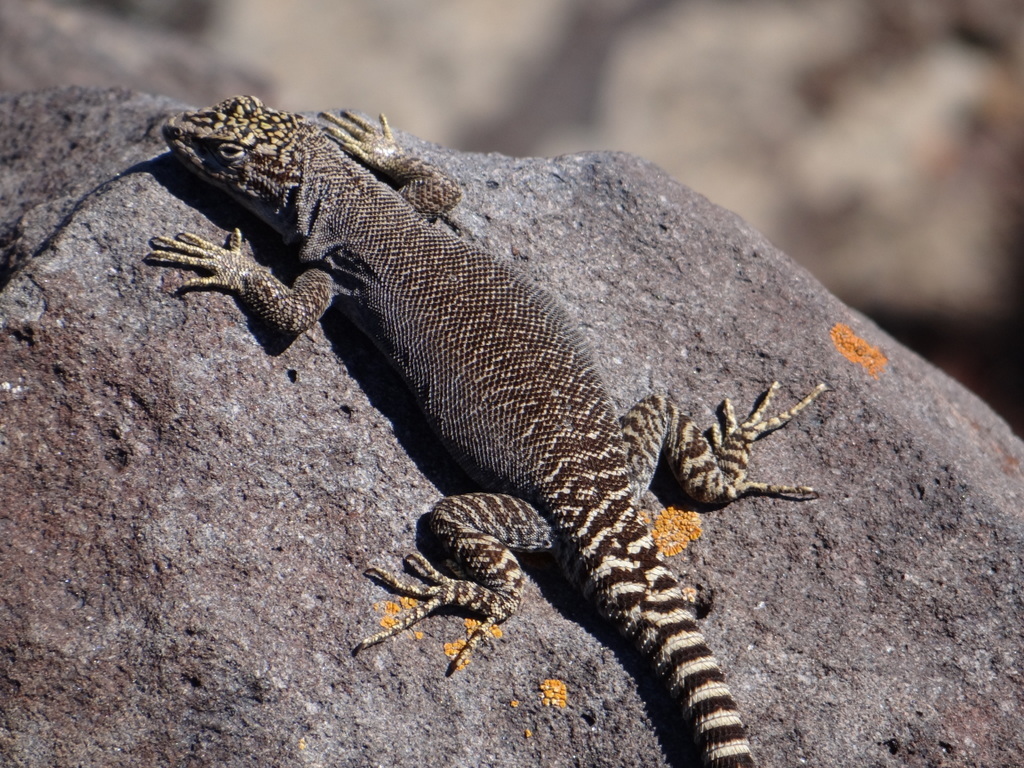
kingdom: Animalia
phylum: Chordata
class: Squamata
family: Liolaemidae
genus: Liolaemus
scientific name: Liolaemus petrophilus
